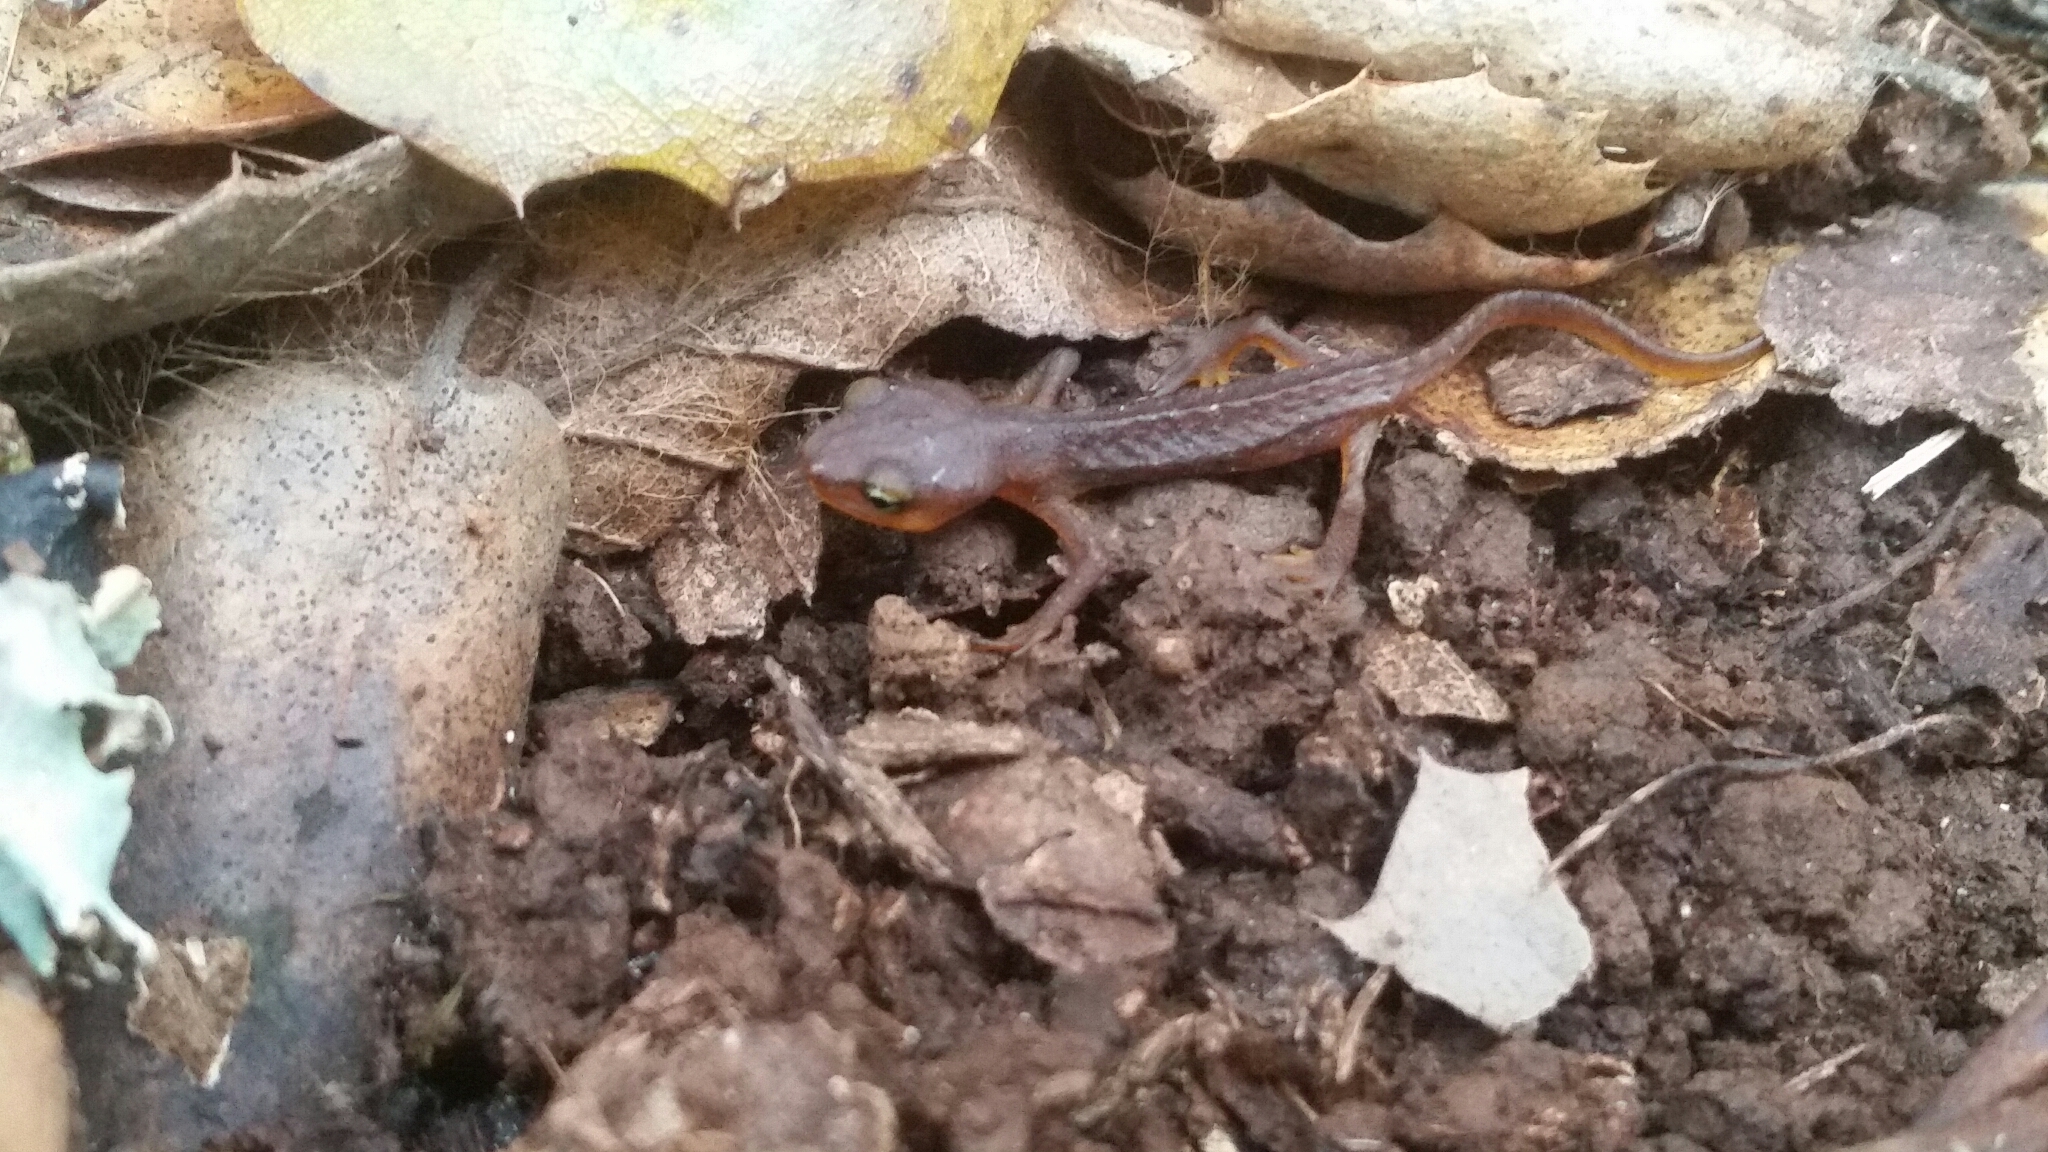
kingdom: Animalia
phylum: Chordata
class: Amphibia
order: Caudata
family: Salamandridae
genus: Taricha
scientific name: Taricha torosa
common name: California newt
